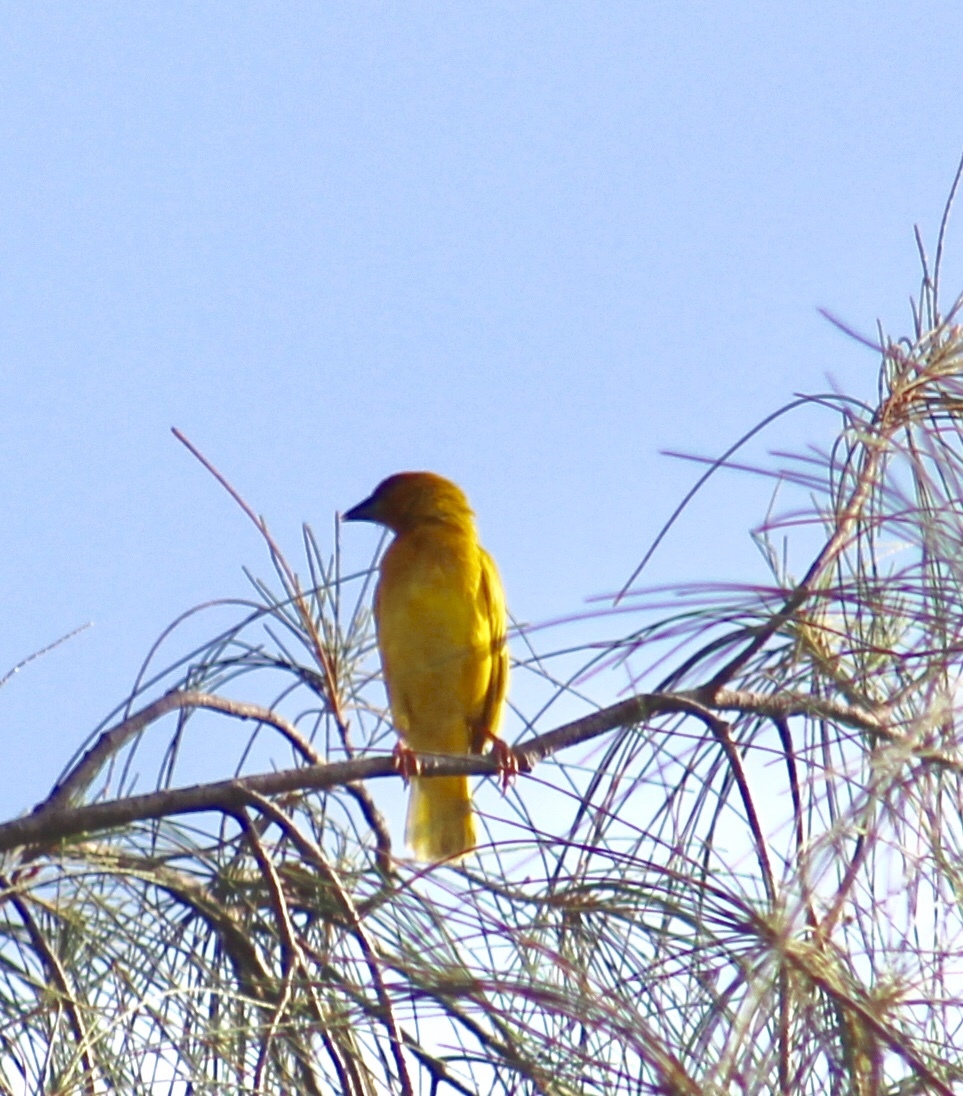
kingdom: Animalia
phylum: Chordata
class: Aves
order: Passeriformes
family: Ploceidae
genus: Ploceus
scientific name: Ploceus subaureus
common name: Yellow weaver
